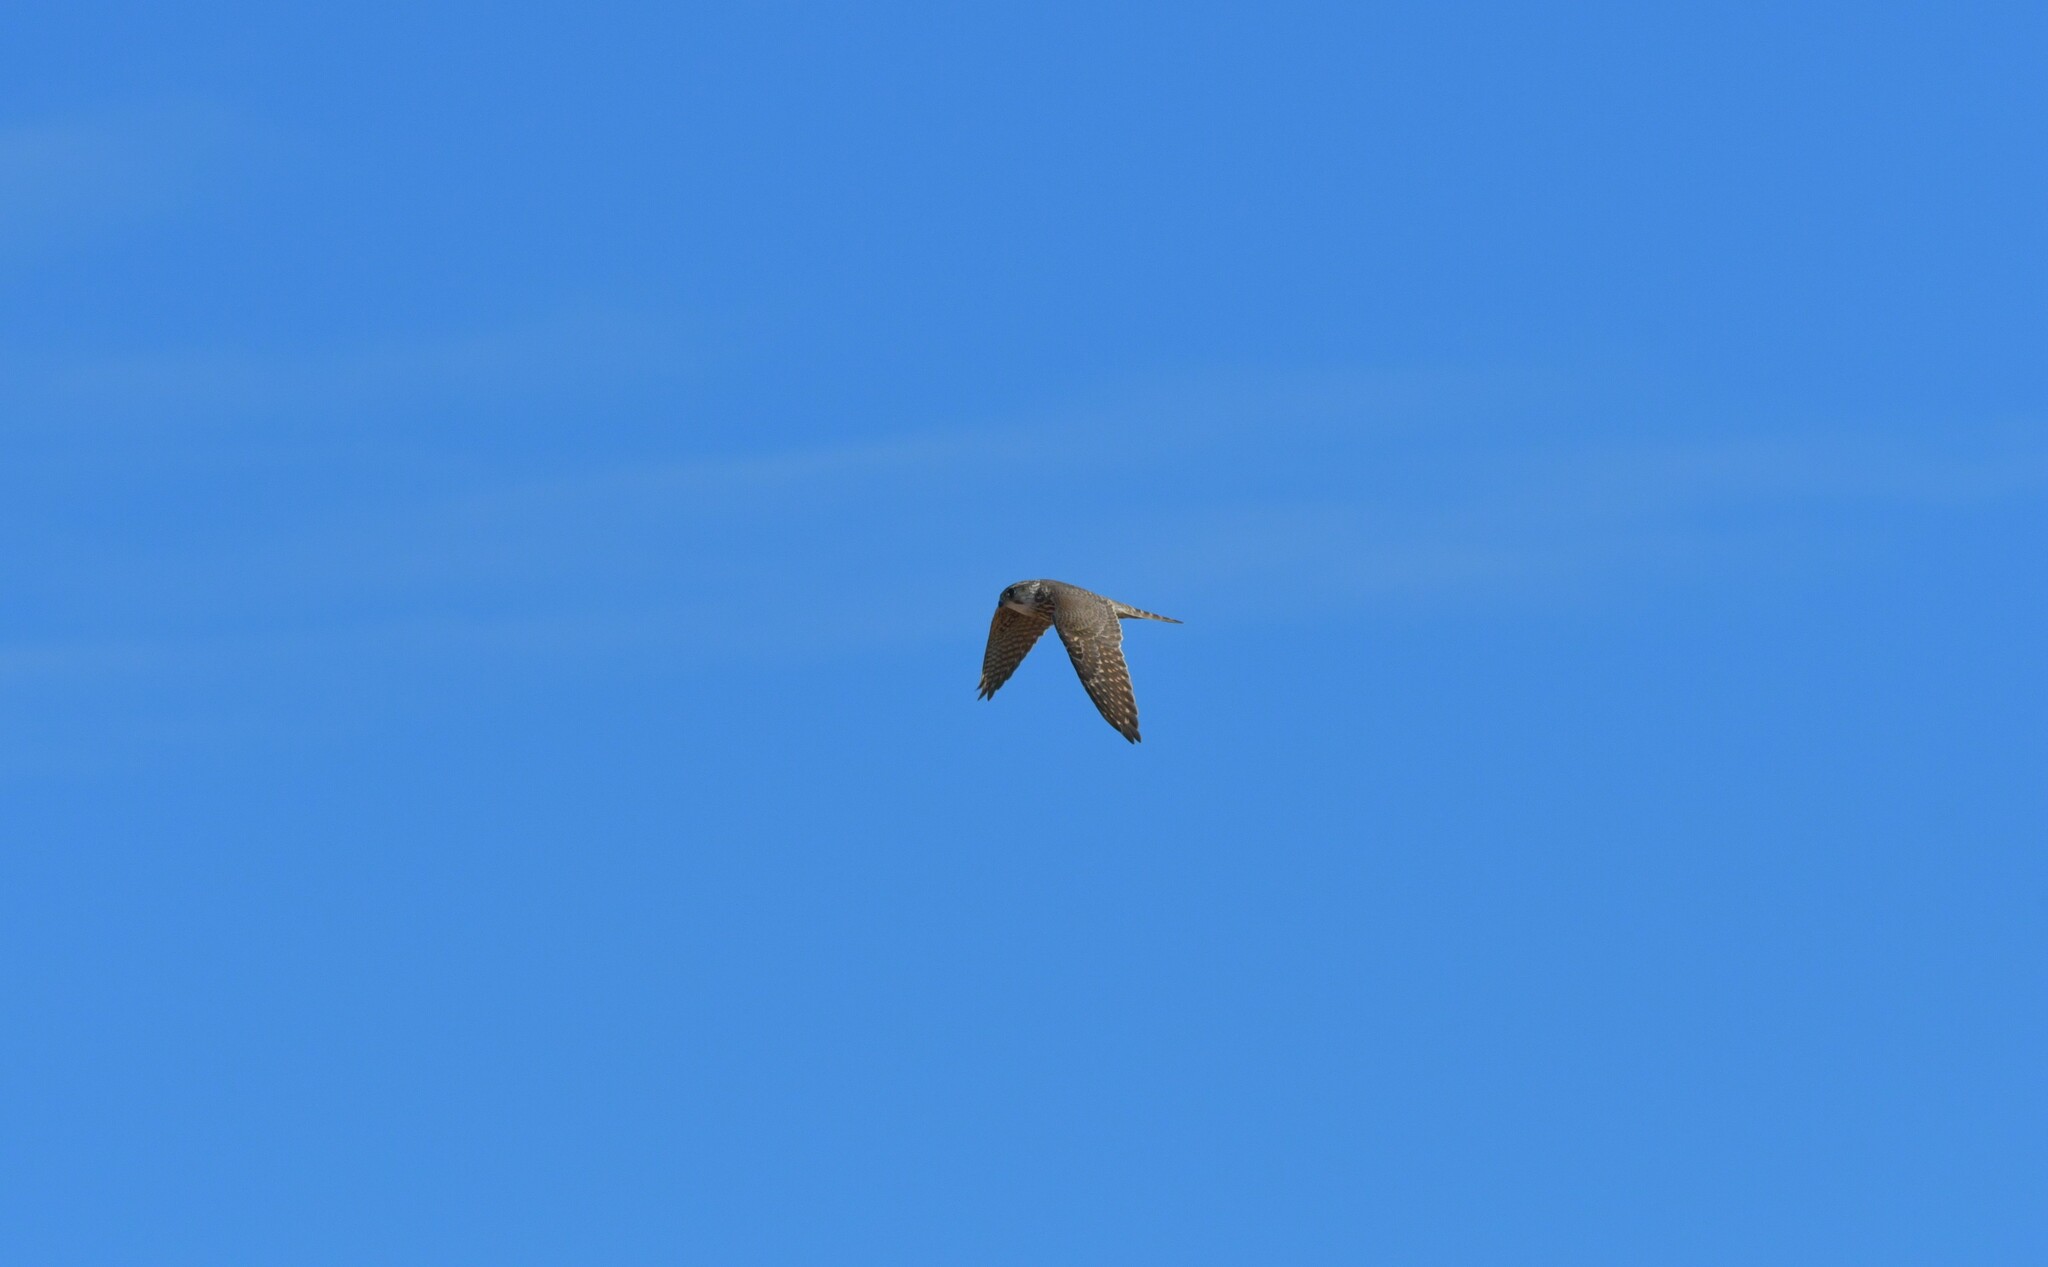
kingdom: Animalia
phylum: Chordata
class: Aves
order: Falconiformes
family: Falconidae
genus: Falco
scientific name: Falco columbarius
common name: Merlin
